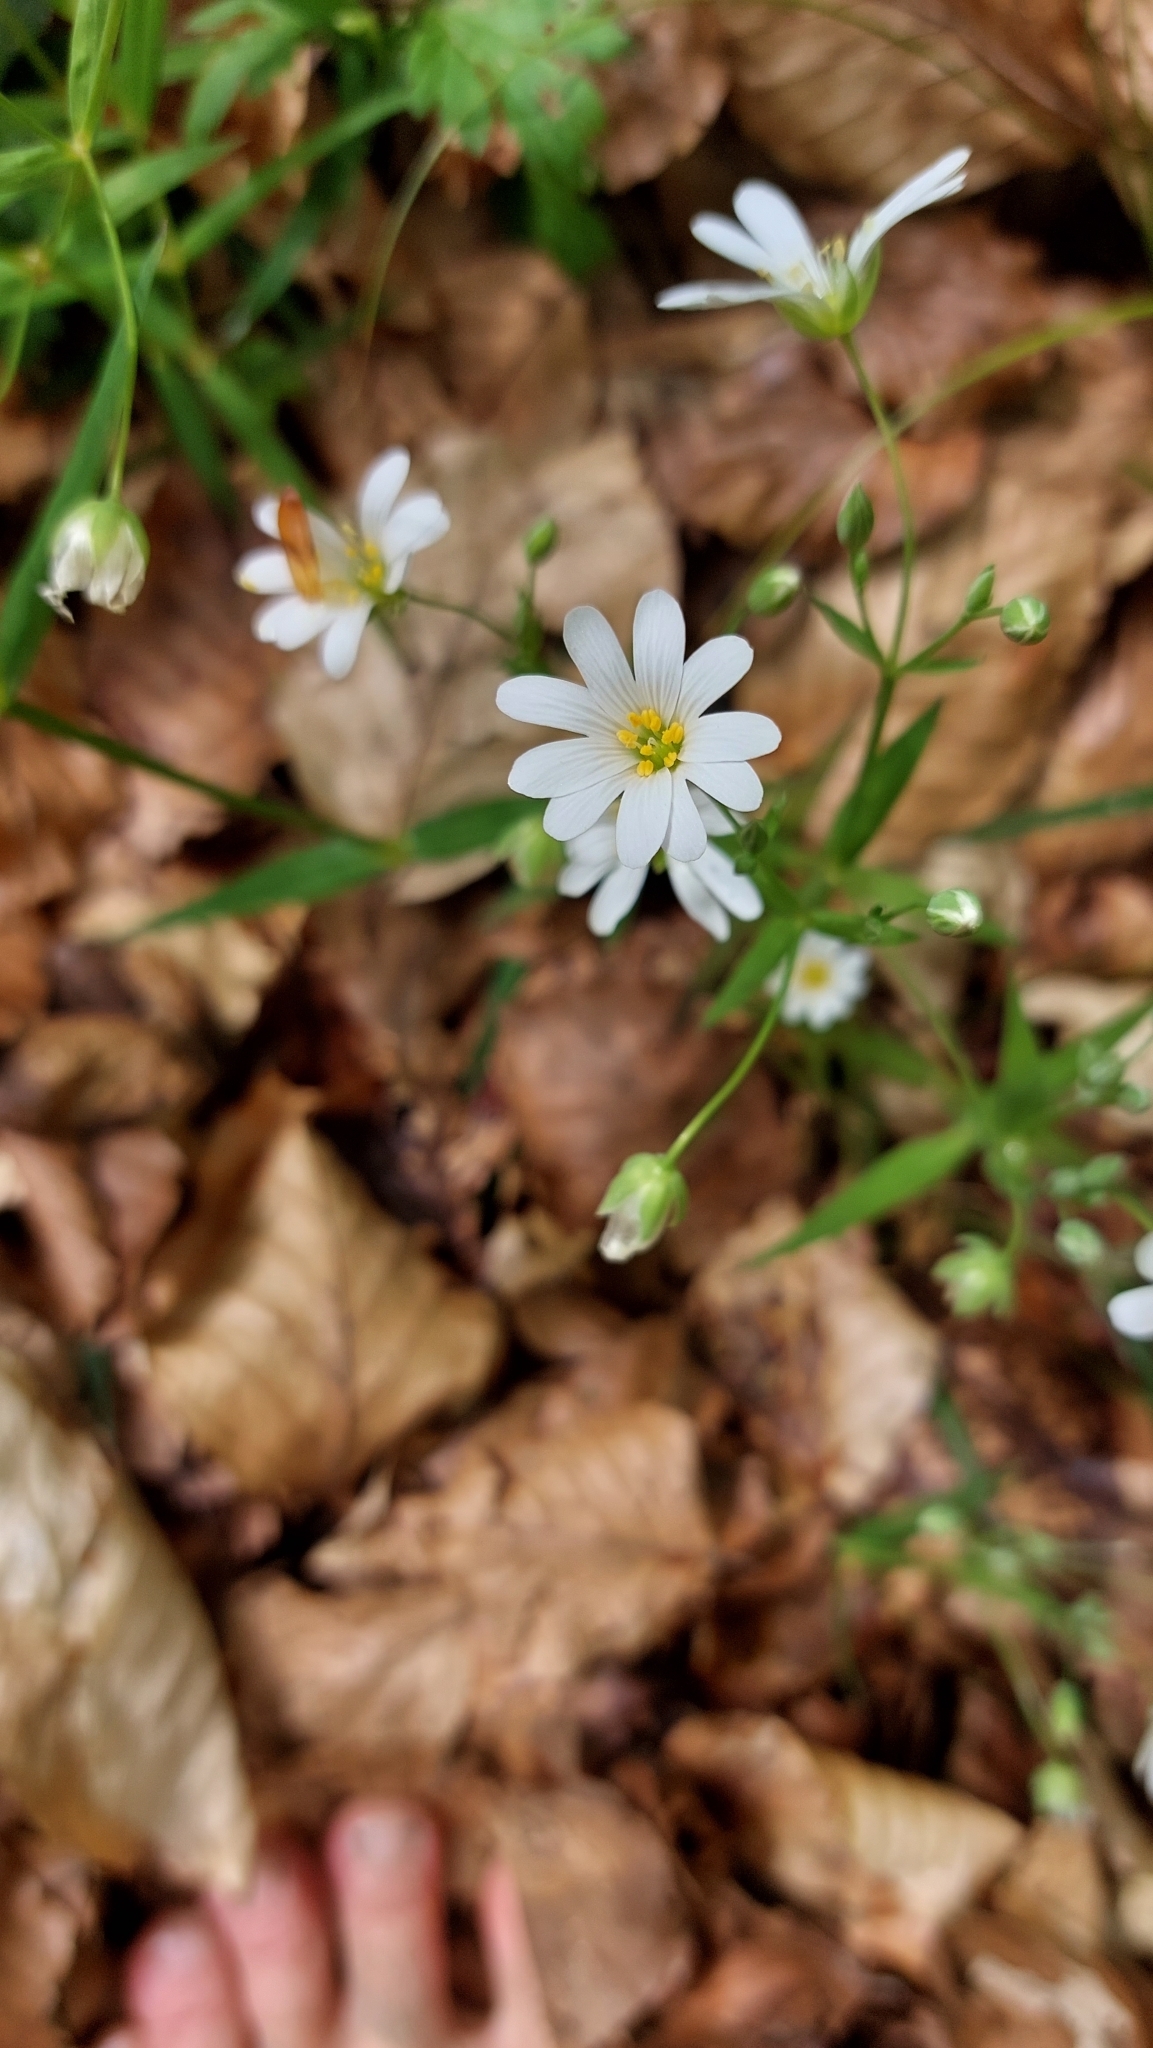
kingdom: Plantae
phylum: Tracheophyta
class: Magnoliopsida
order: Caryophyllales
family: Caryophyllaceae
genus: Rabelera
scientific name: Rabelera holostea
